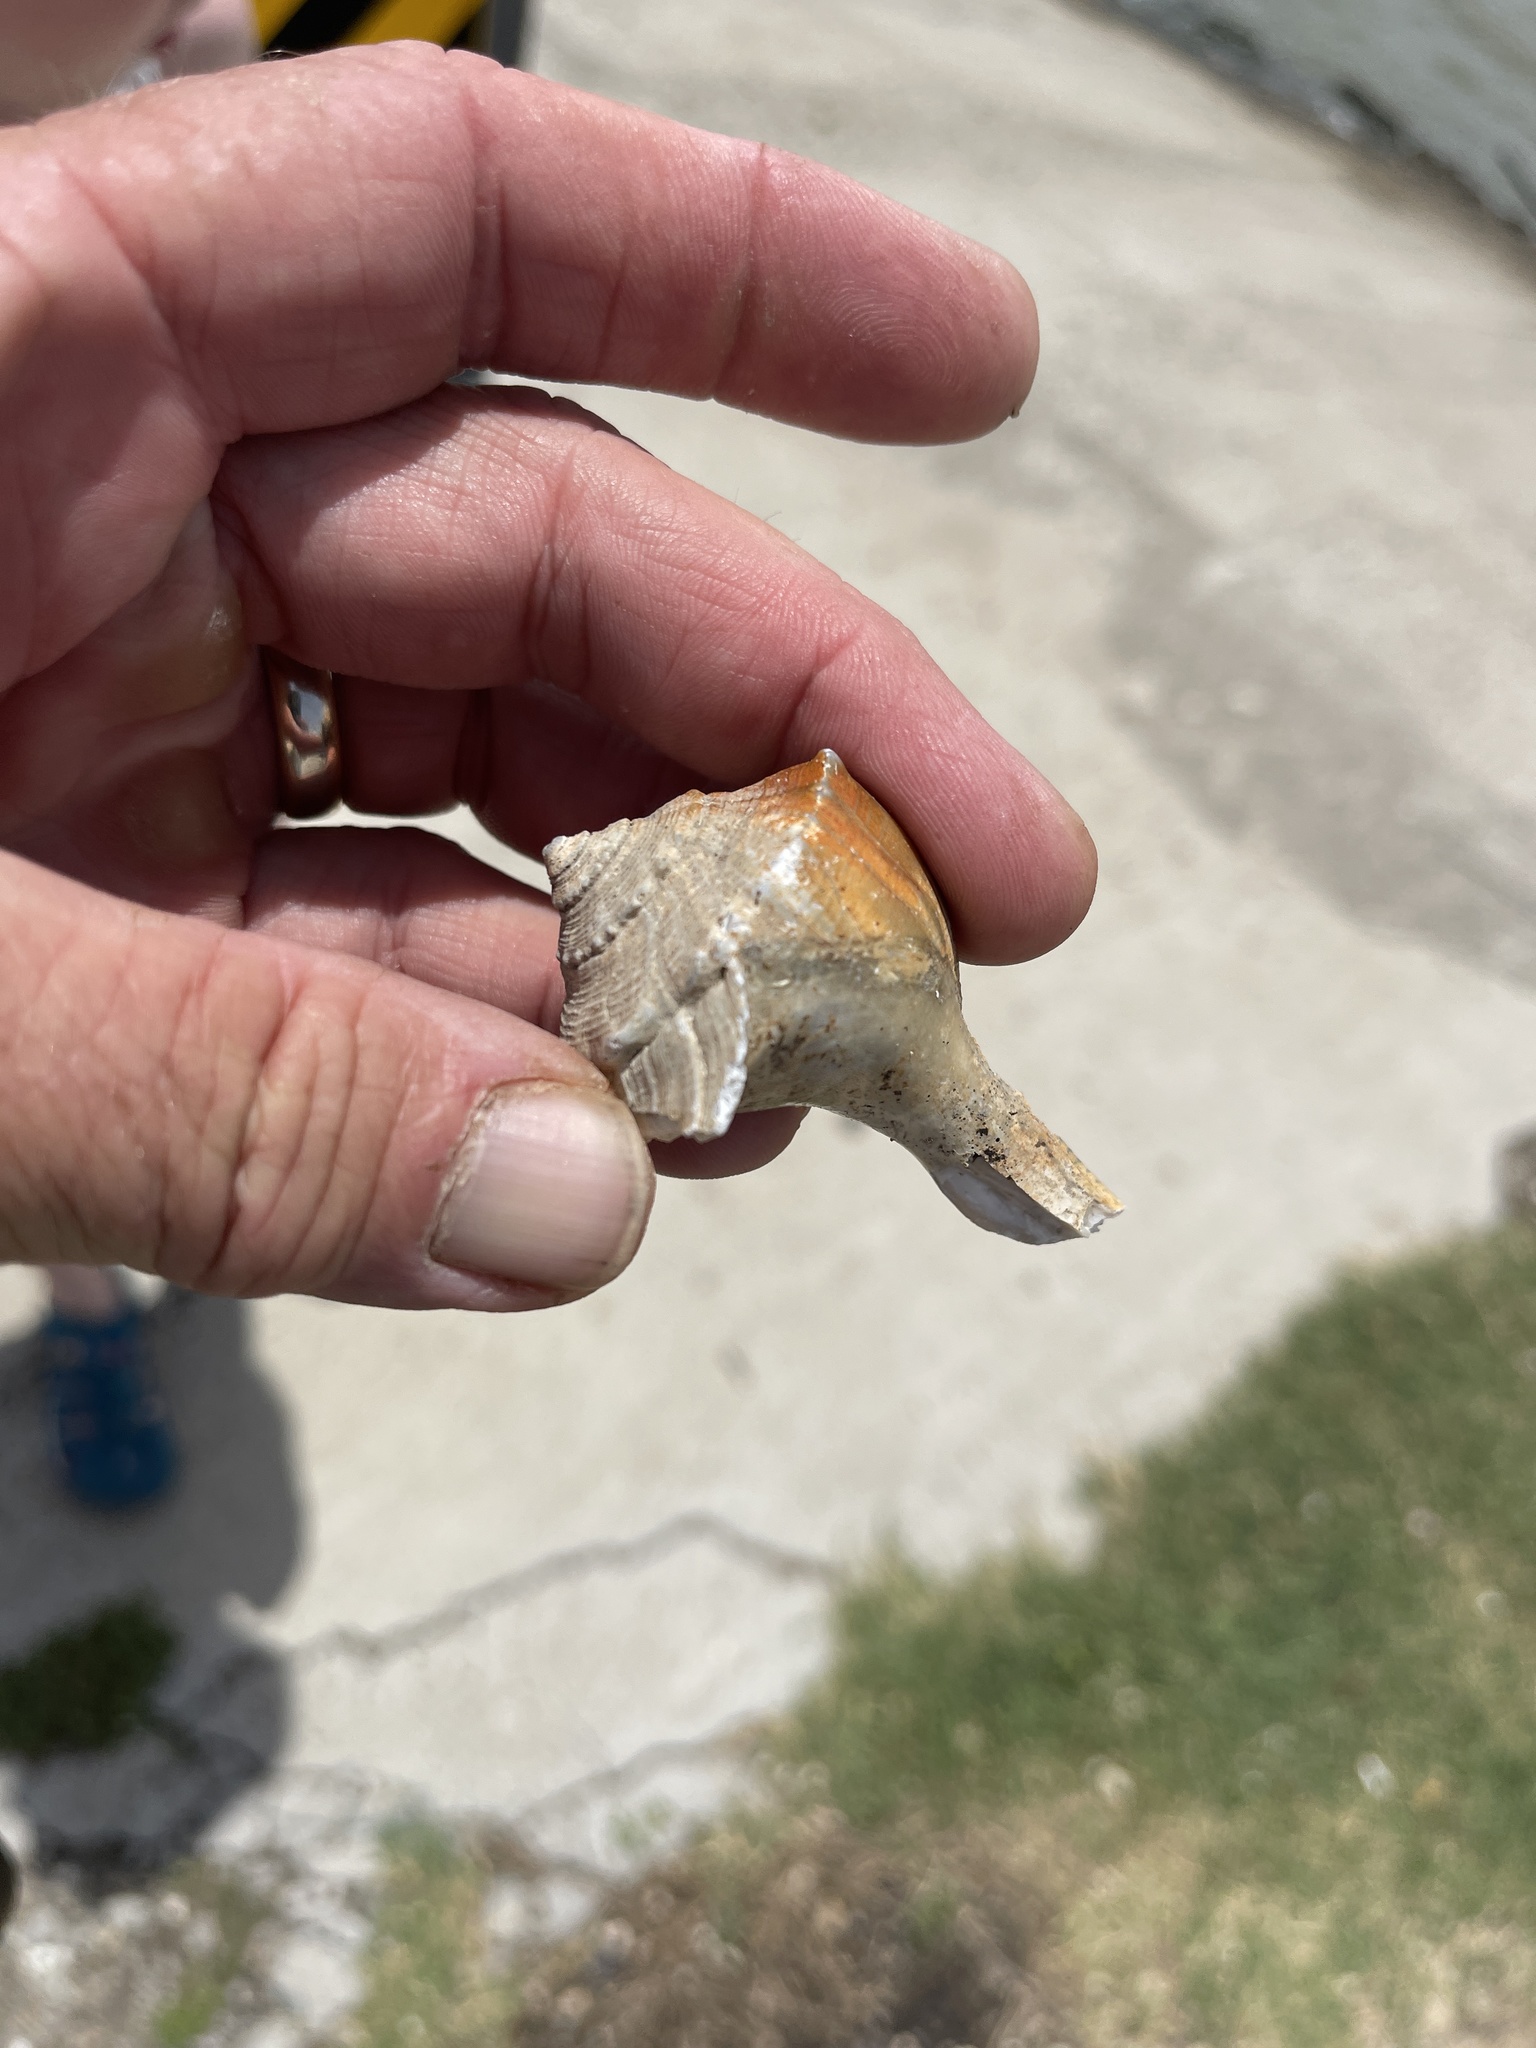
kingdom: Animalia
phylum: Mollusca
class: Gastropoda
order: Neogastropoda
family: Busyconidae
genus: Sinistrofulgur
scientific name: Sinistrofulgur pulleyi
